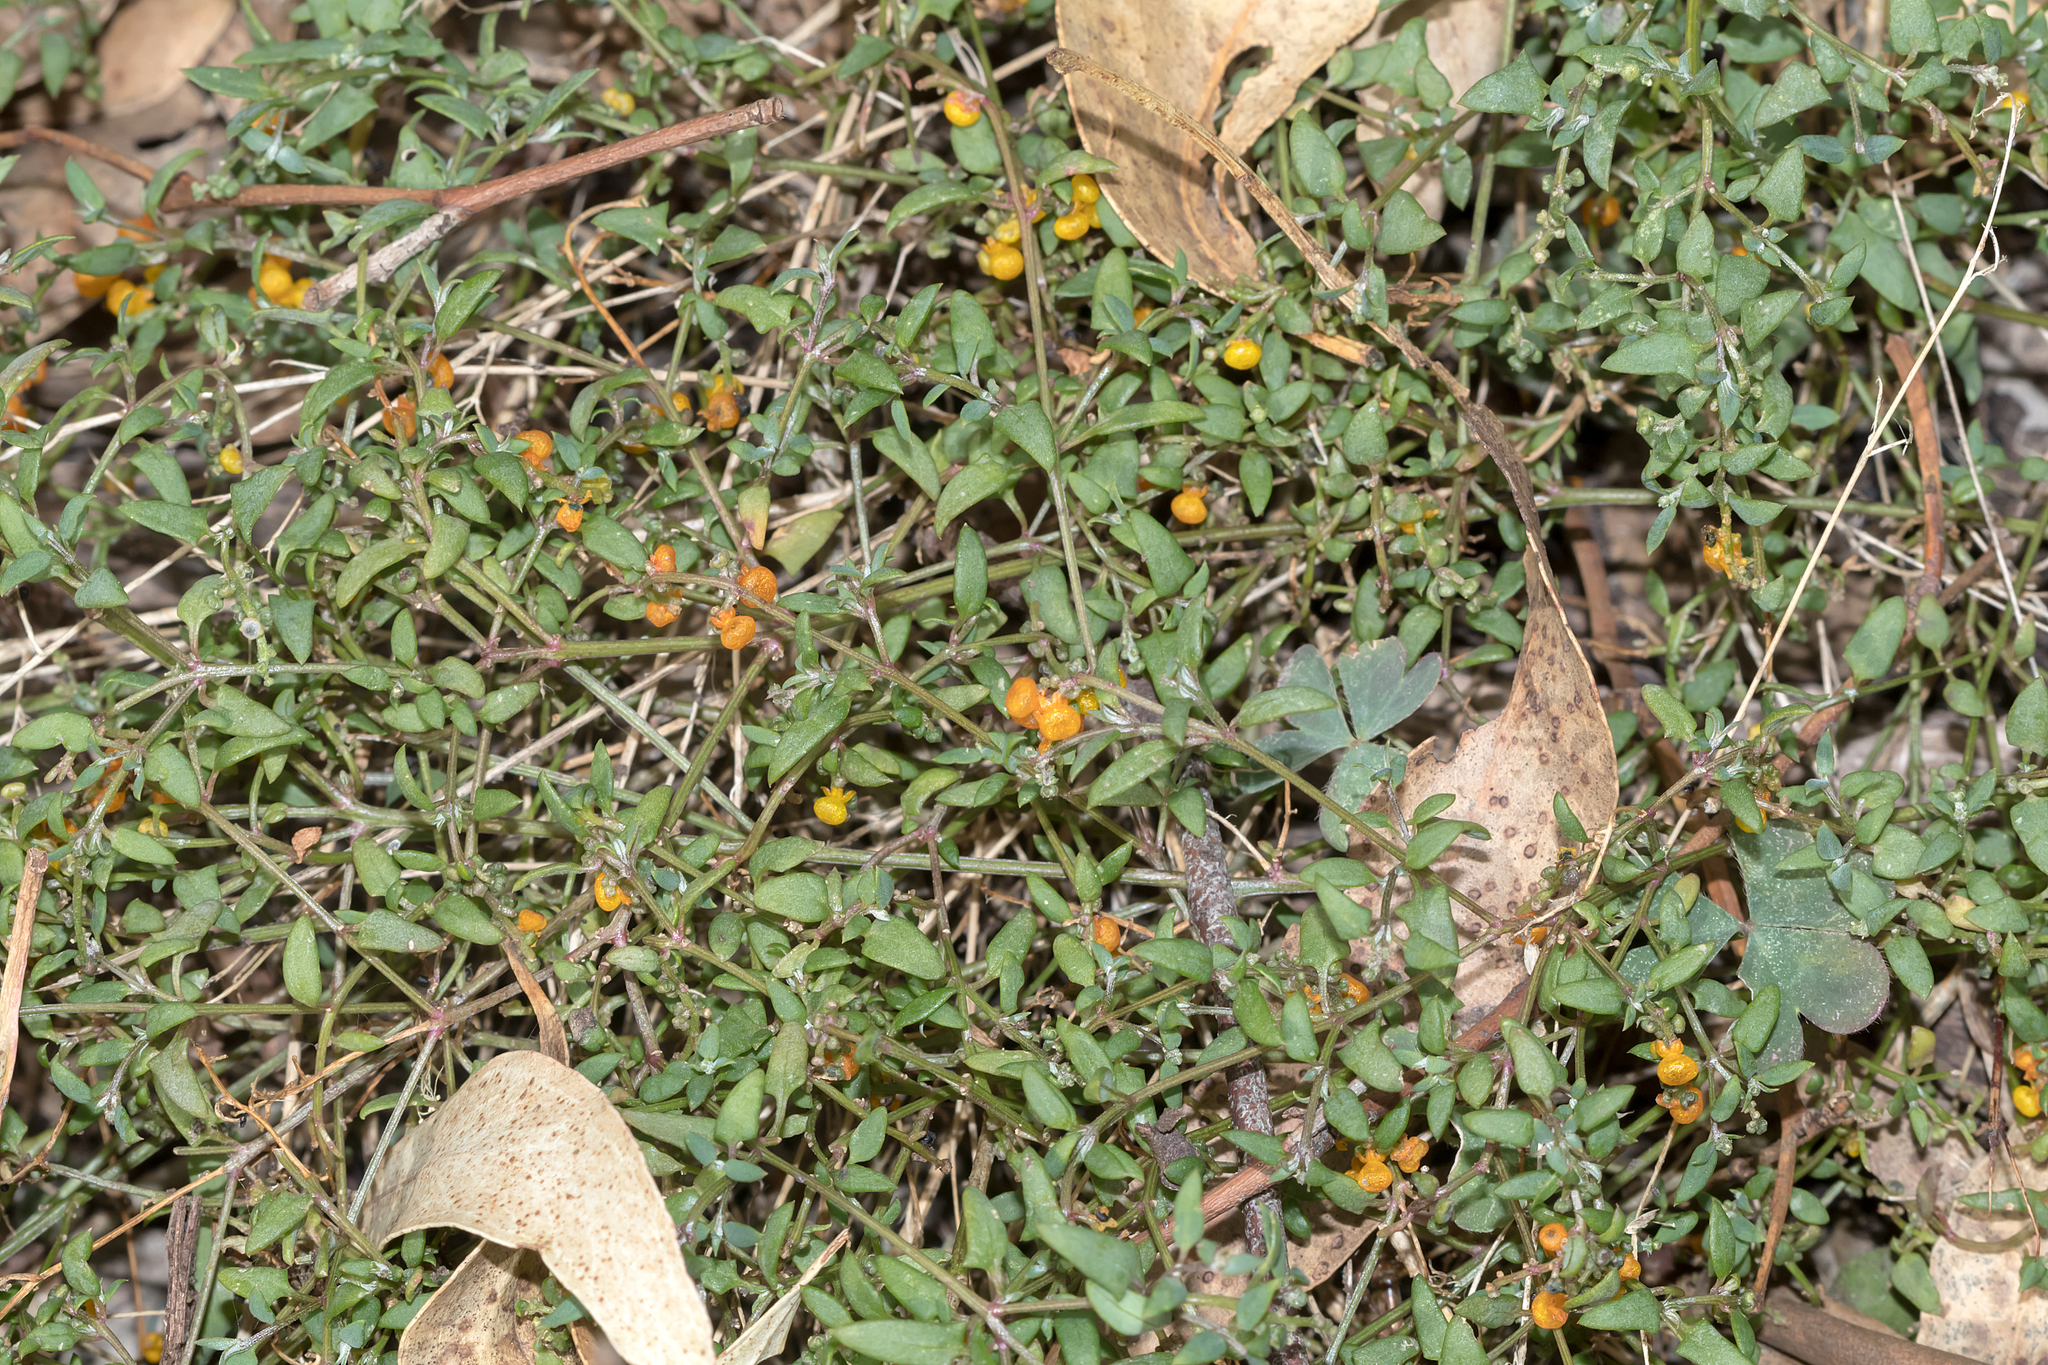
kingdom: Plantae
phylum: Tracheophyta
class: Magnoliopsida
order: Caryophyllales
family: Amaranthaceae
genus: Chenopodium
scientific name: Chenopodium nutans
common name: Climbing-saltbush
